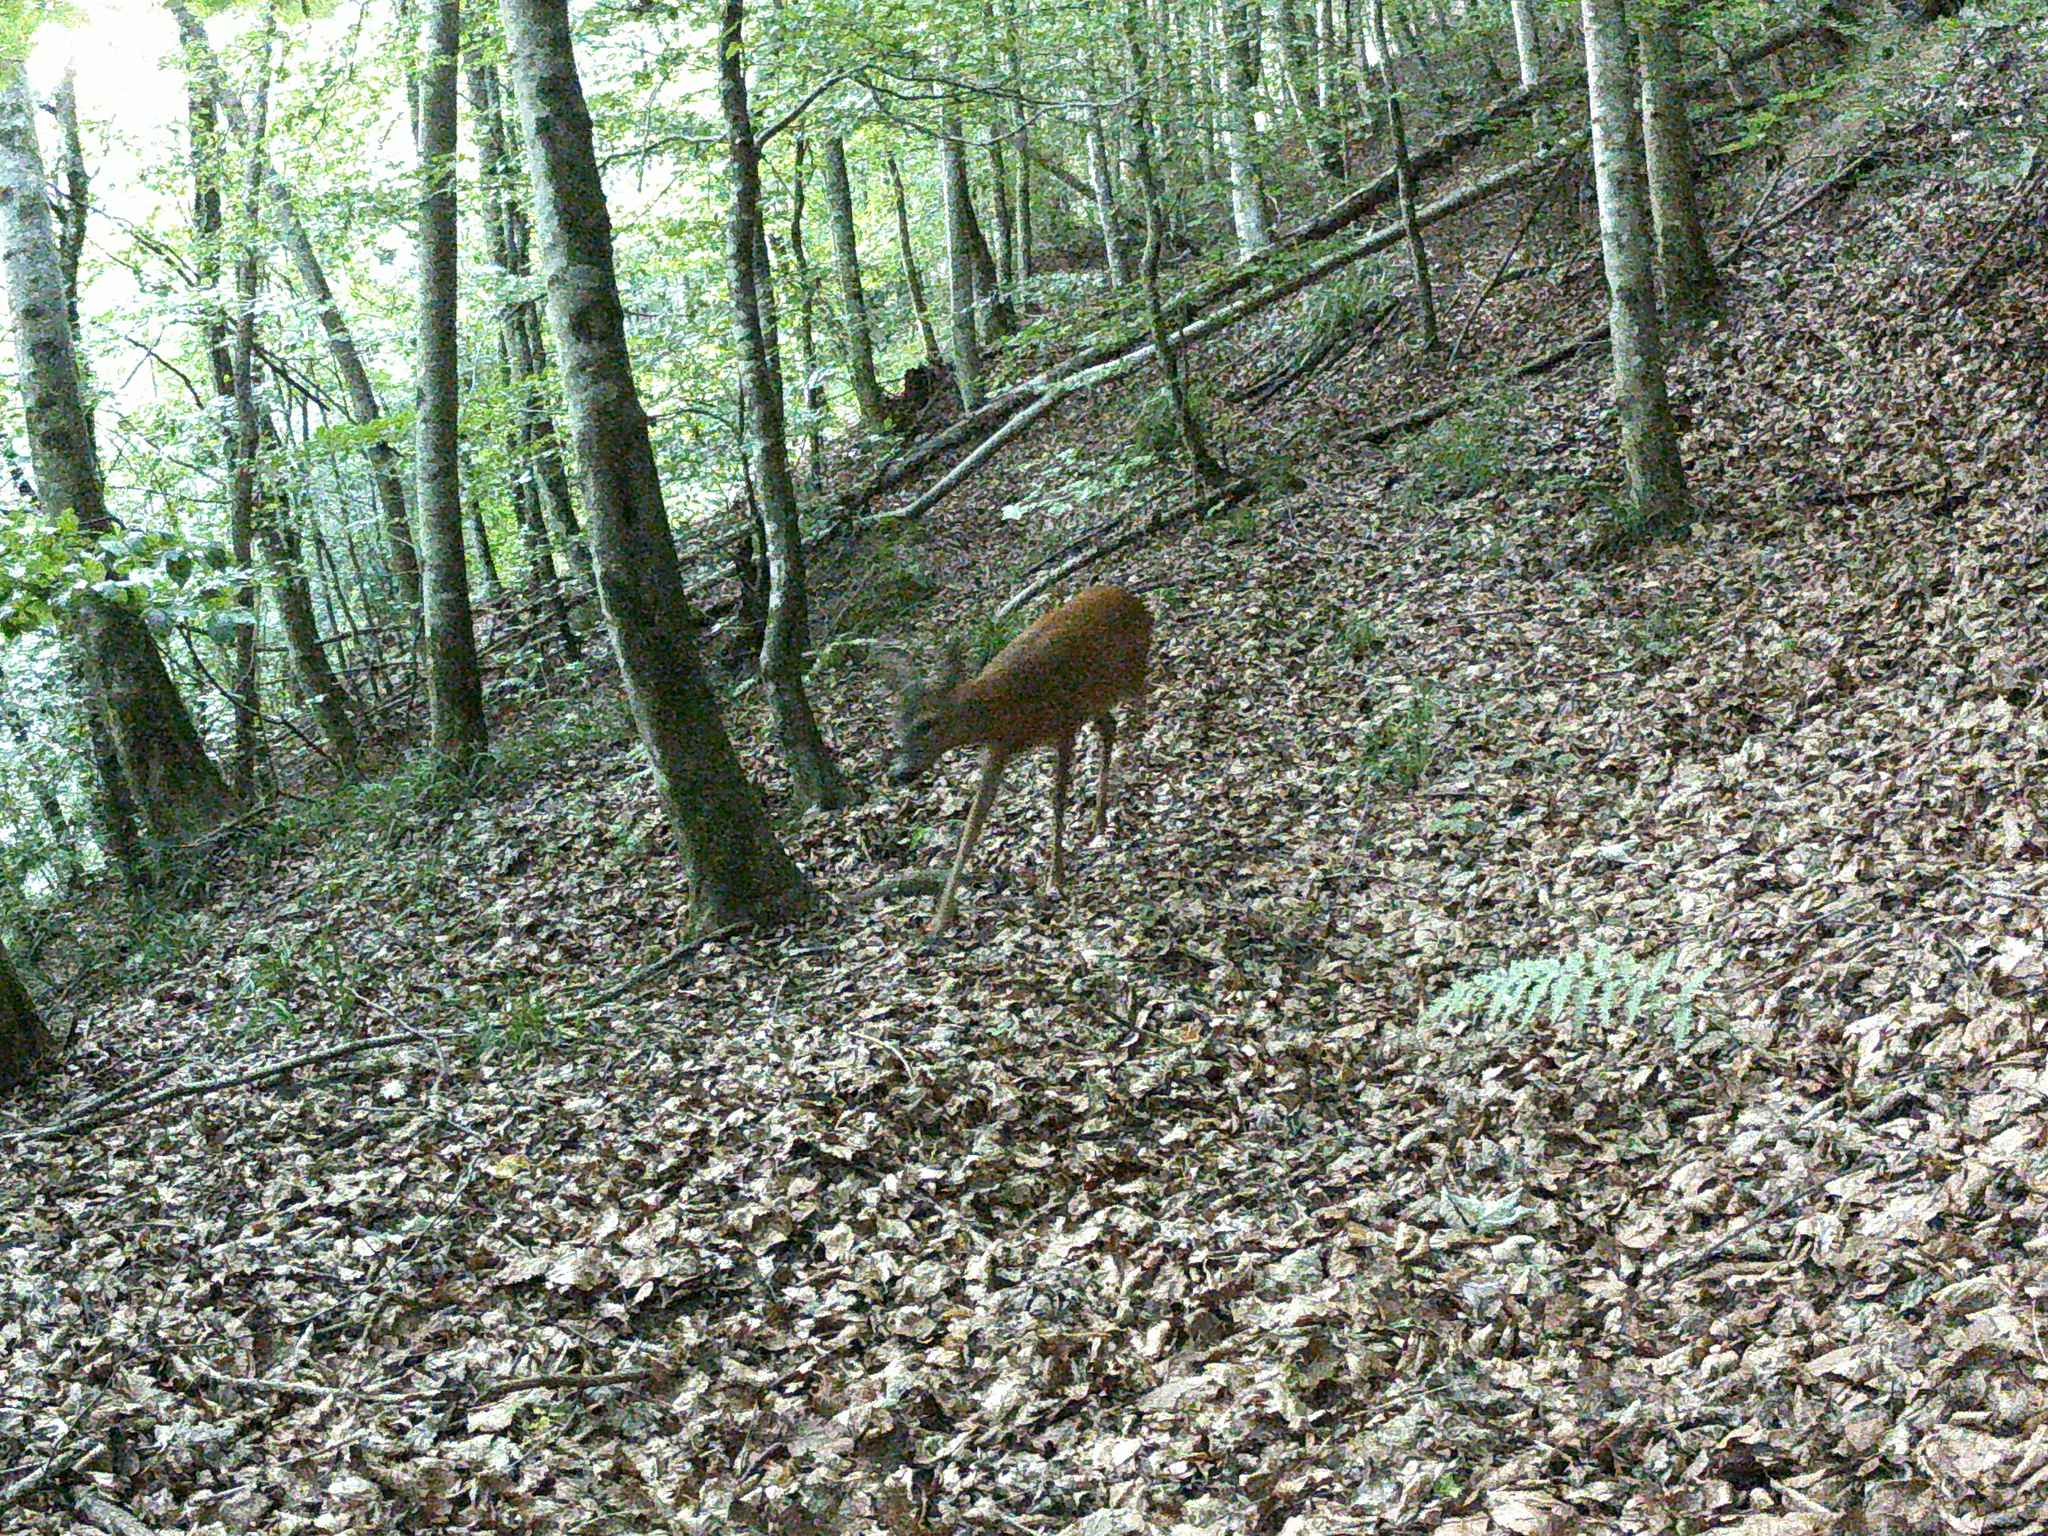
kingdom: Animalia
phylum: Chordata
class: Mammalia
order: Artiodactyla
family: Cervidae
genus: Capreolus
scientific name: Capreolus capreolus
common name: Western roe deer
